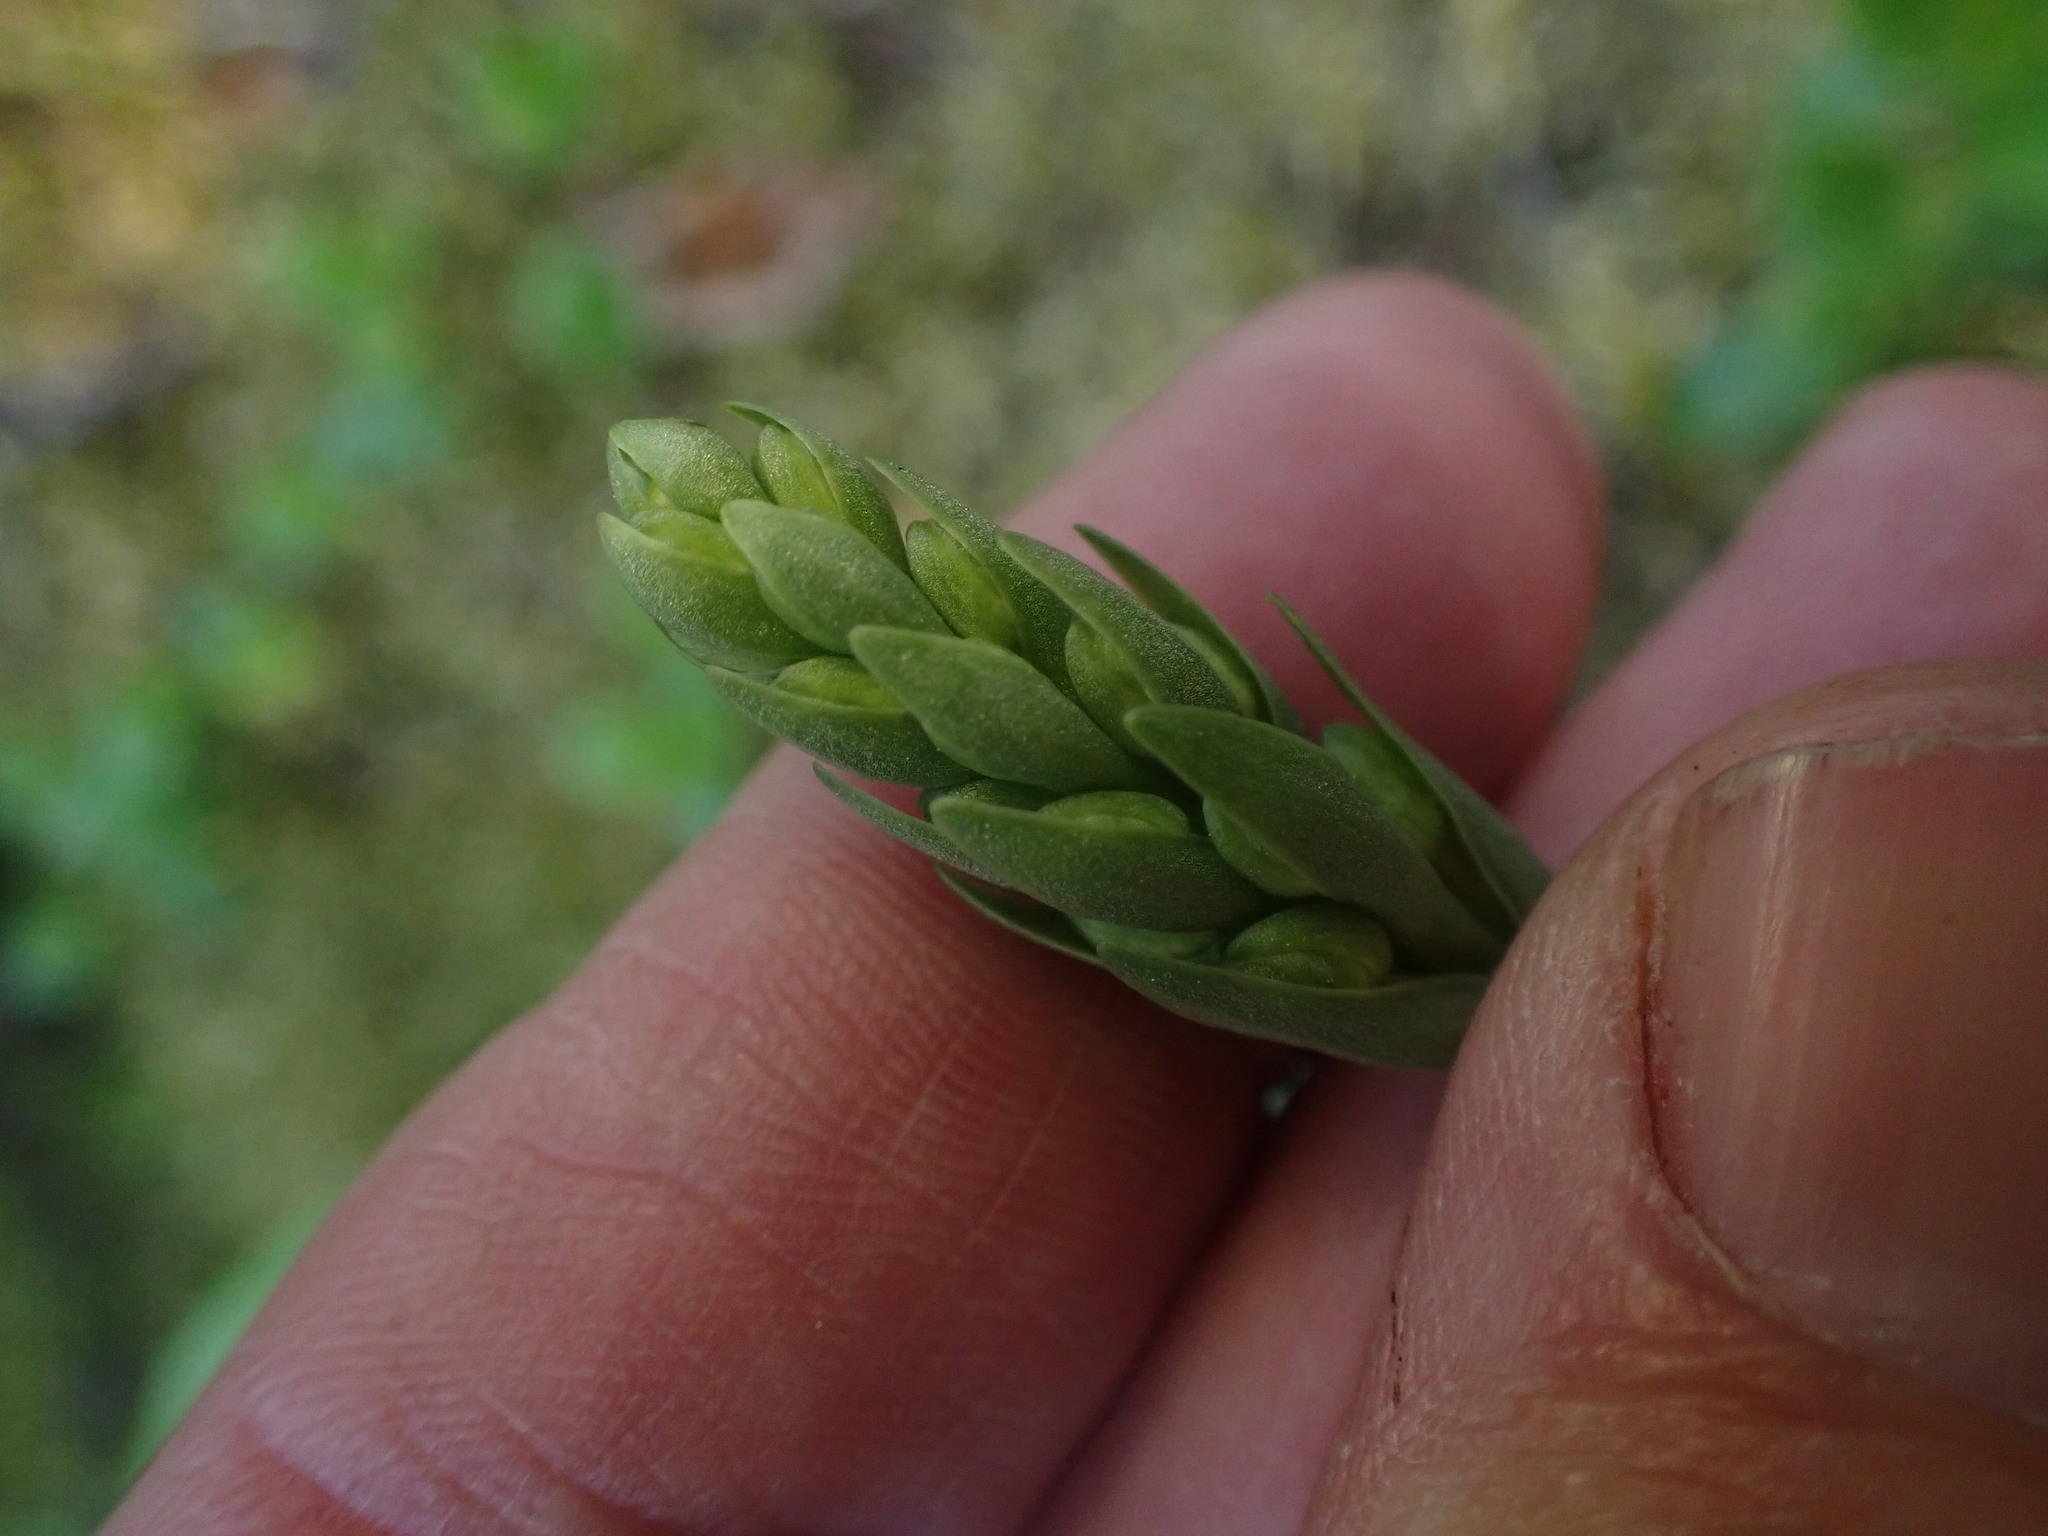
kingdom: Plantae
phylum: Tracheophyta
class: Liliopsida
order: Asparagales
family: Orchidaceae
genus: Platanthera
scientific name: Platanthera orbiculata
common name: Large round-leaved orchid
